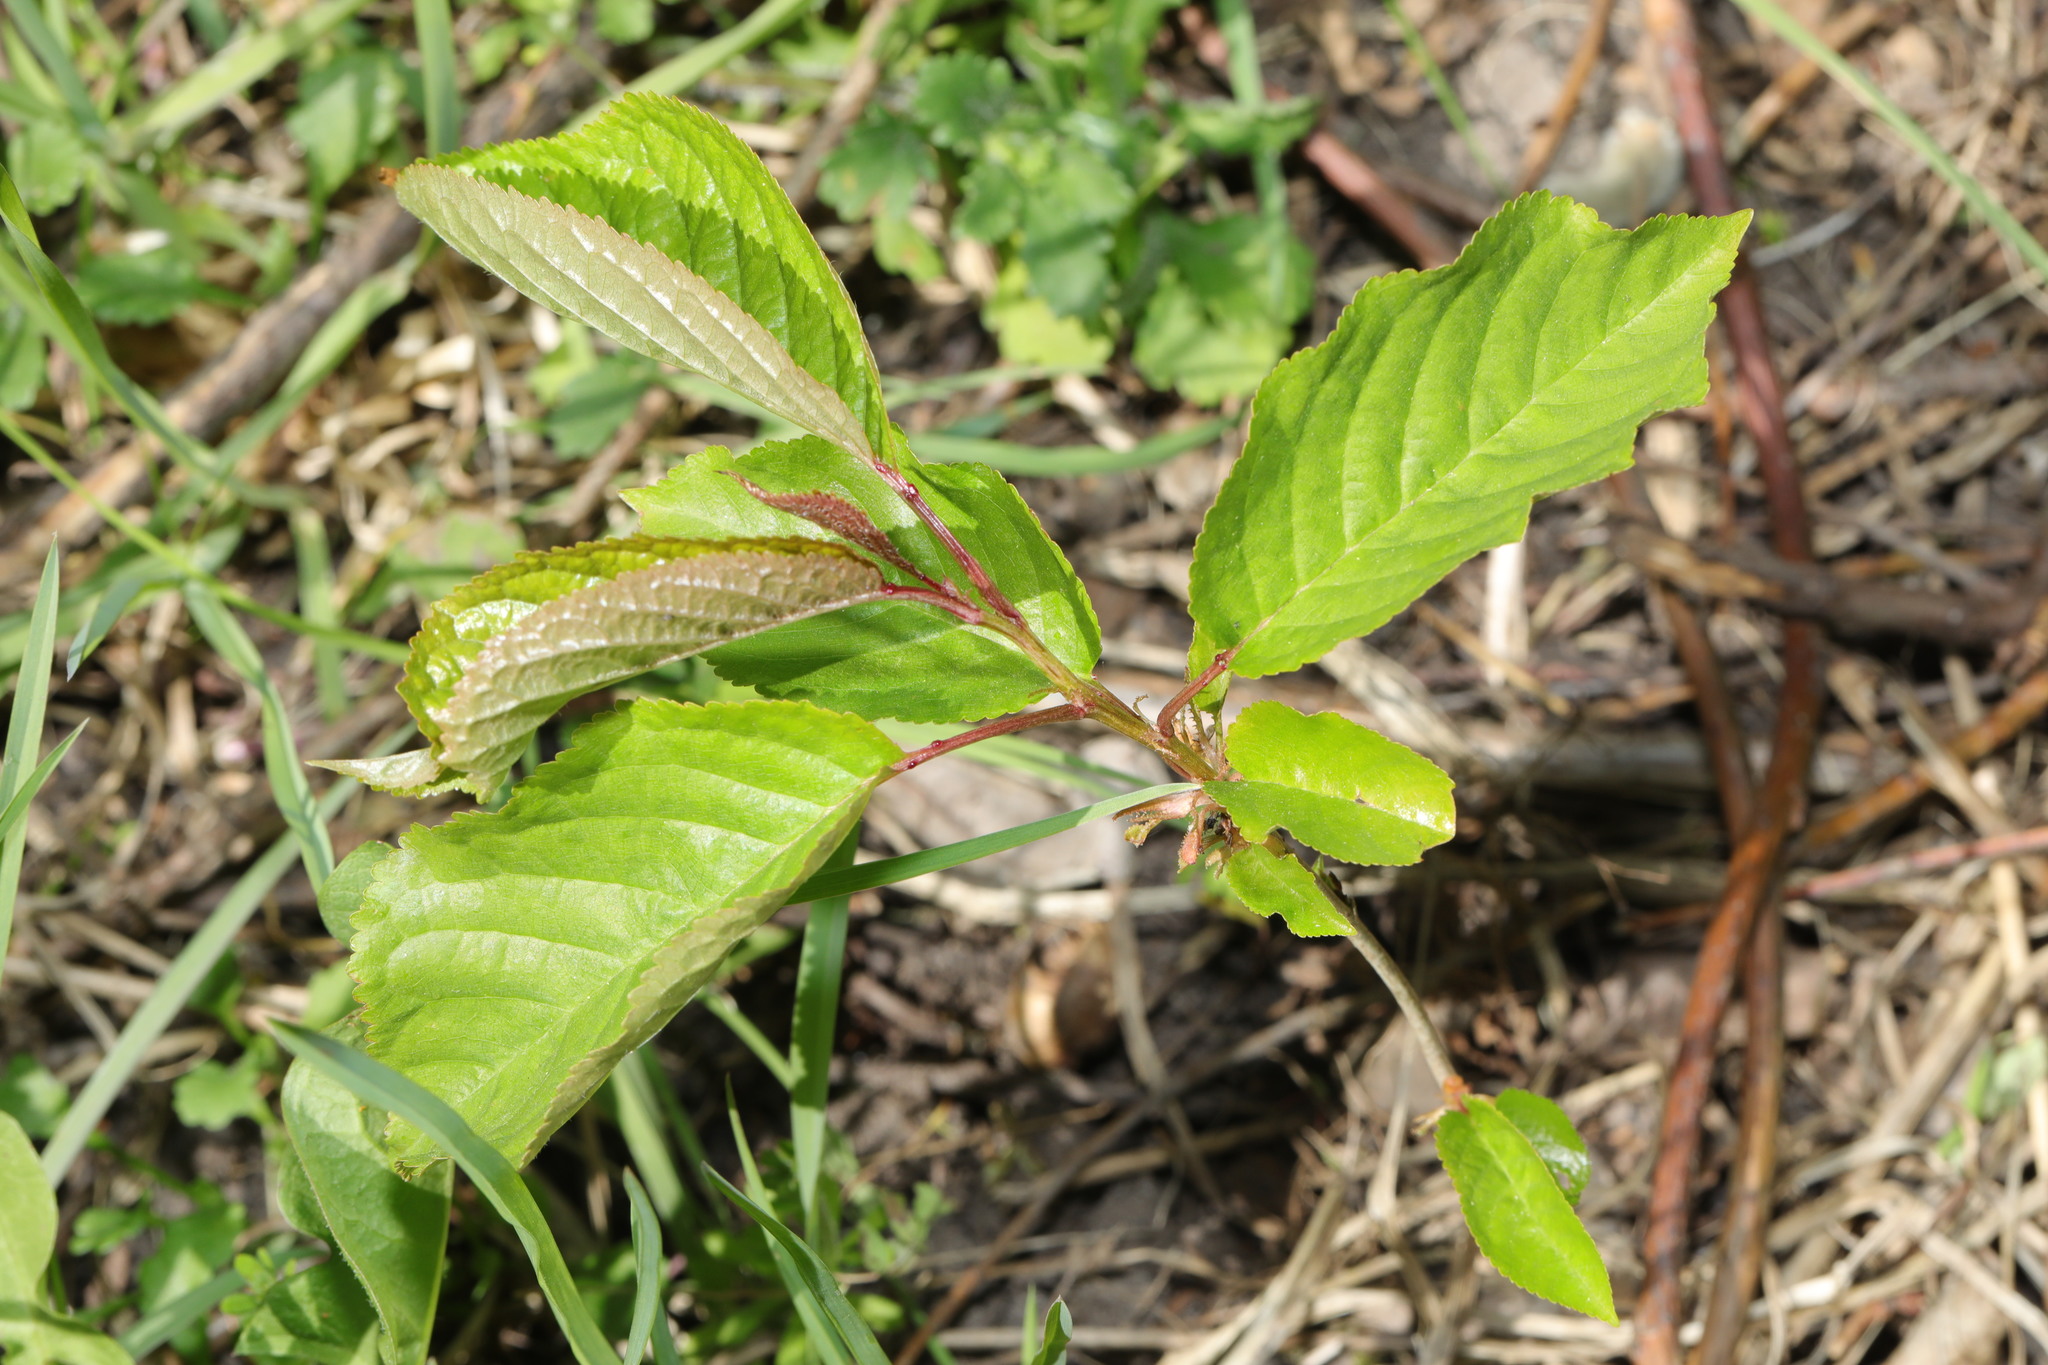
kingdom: Plantae
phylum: Tracheophyta
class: Magnoliopsida
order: Rosales
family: Rosaceae
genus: Prunus
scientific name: Prunus avium
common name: Sweet cherry
